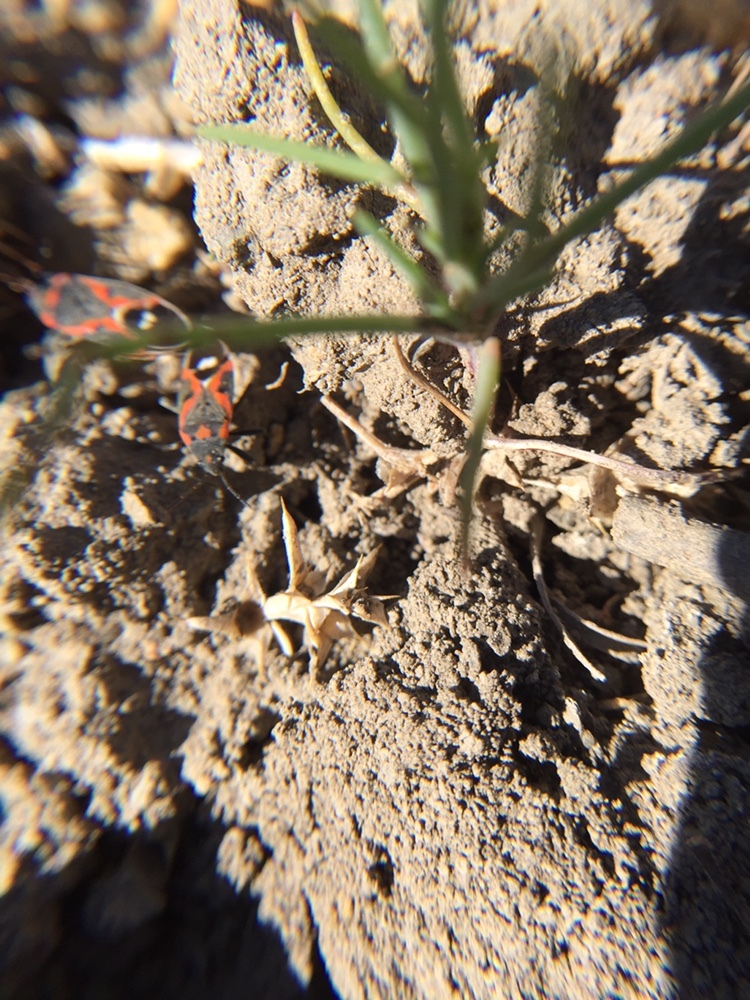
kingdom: Animalia
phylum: Arthropoda
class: Insecta
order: Hemiptera
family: Lygaeidae
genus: Lygaeus
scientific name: Lygaeus kalmii
